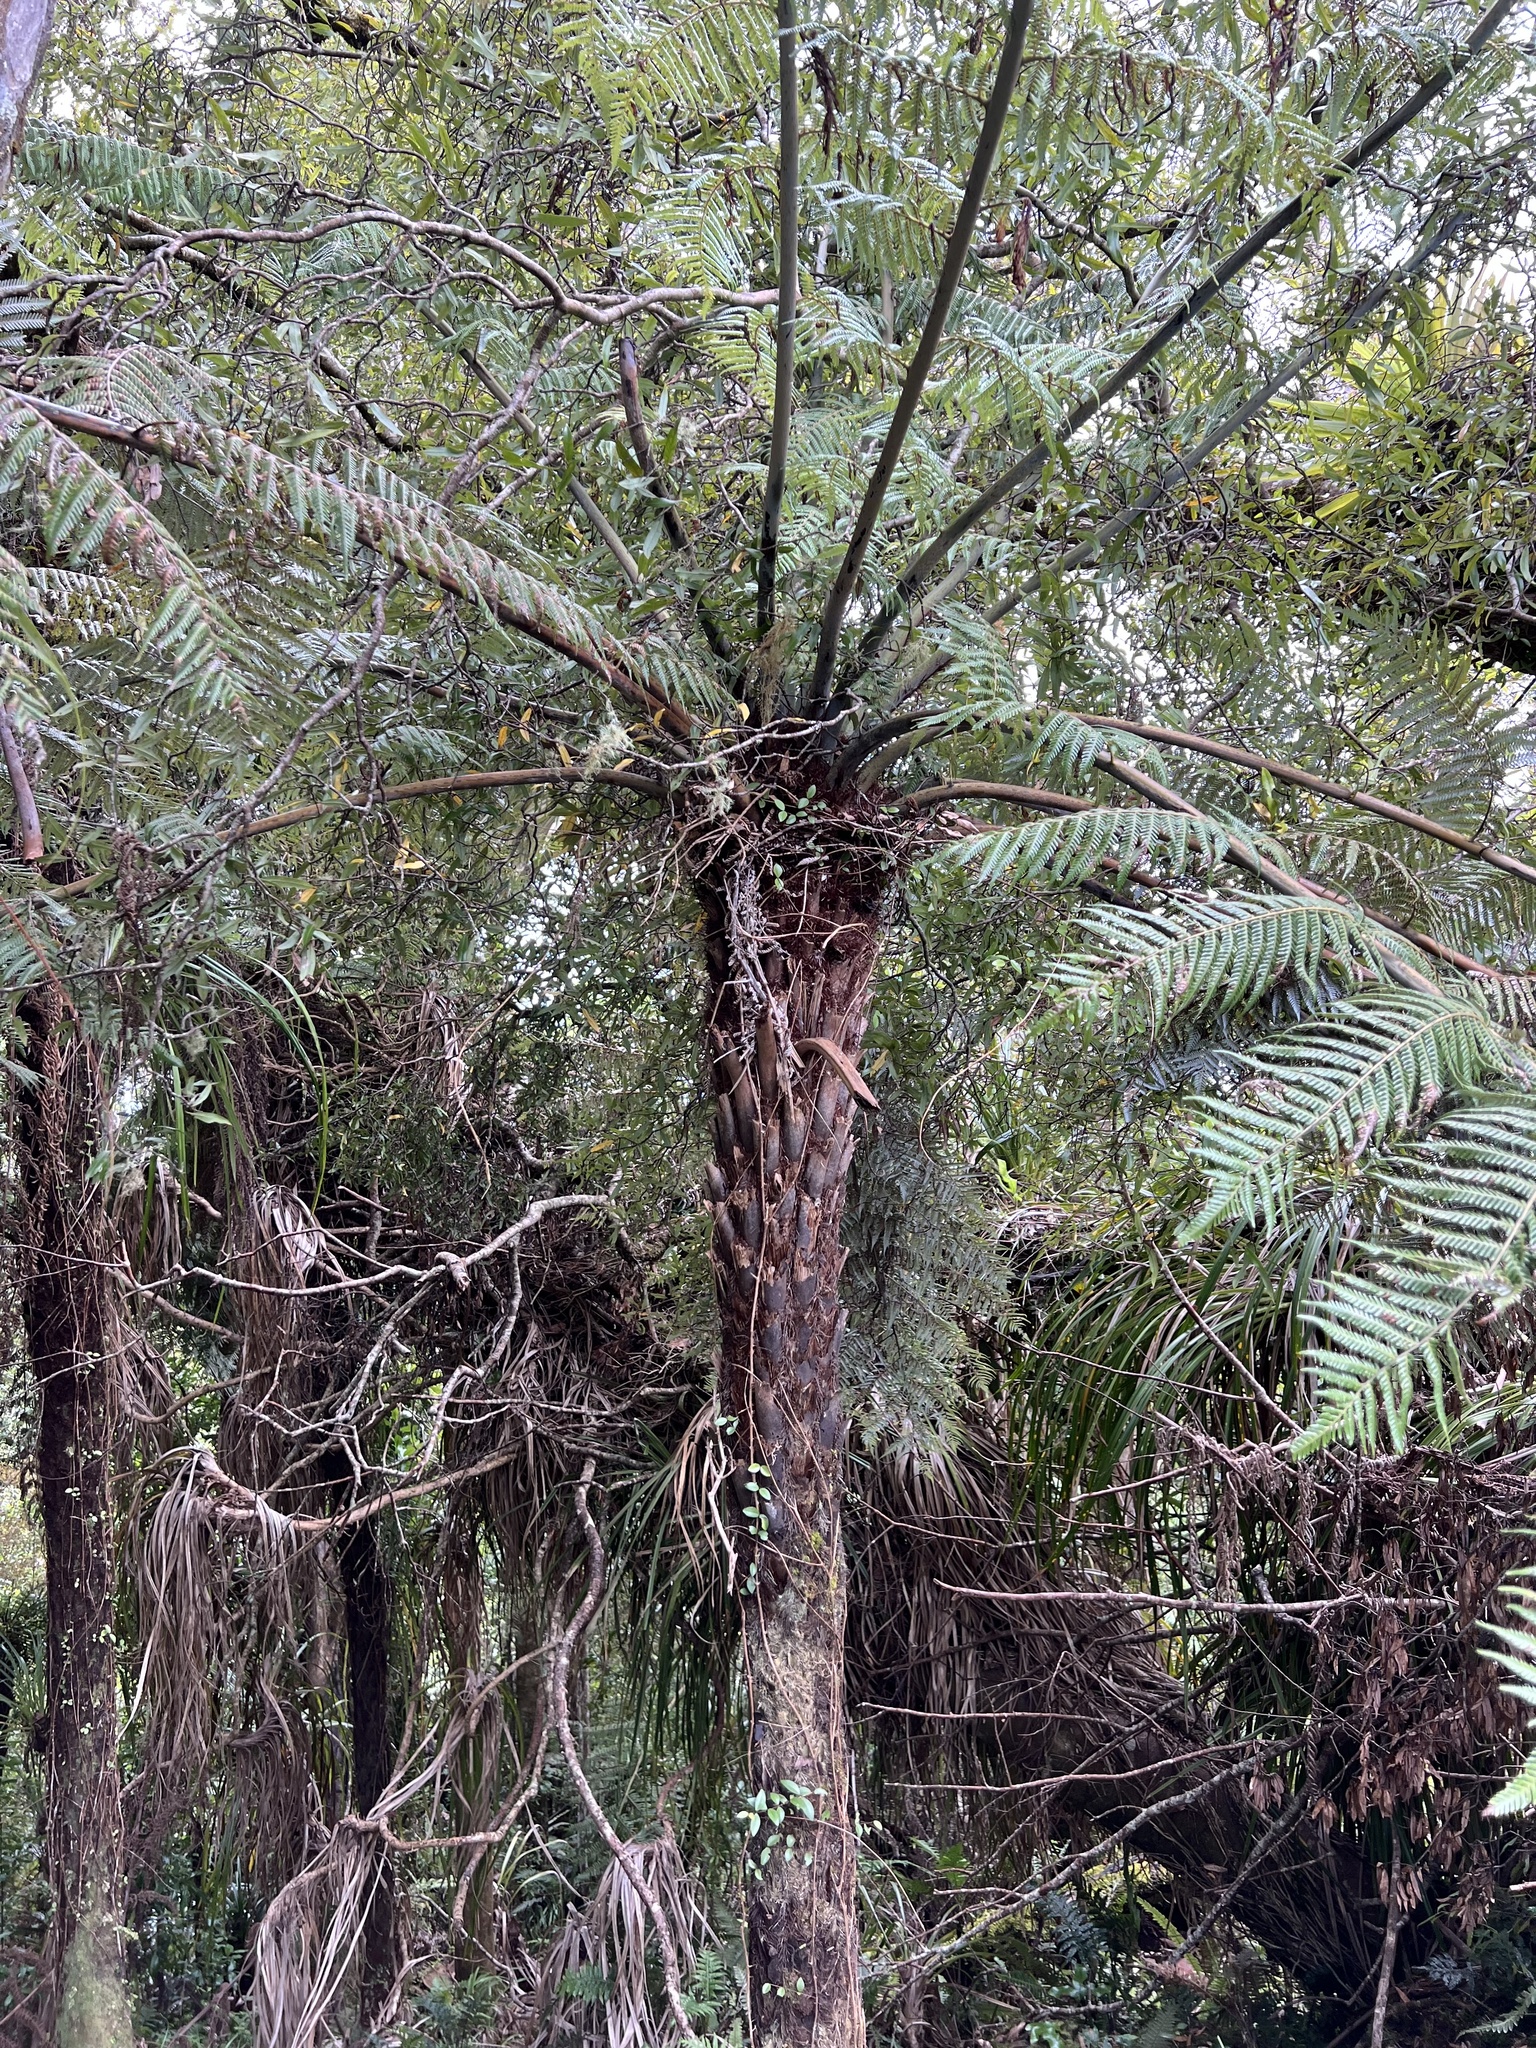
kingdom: Plantae
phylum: Tracheophyta
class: Polypodiopsida
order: Cyatheales
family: Cyatheaceae
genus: Alsophila
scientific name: Alsophila dealbata
